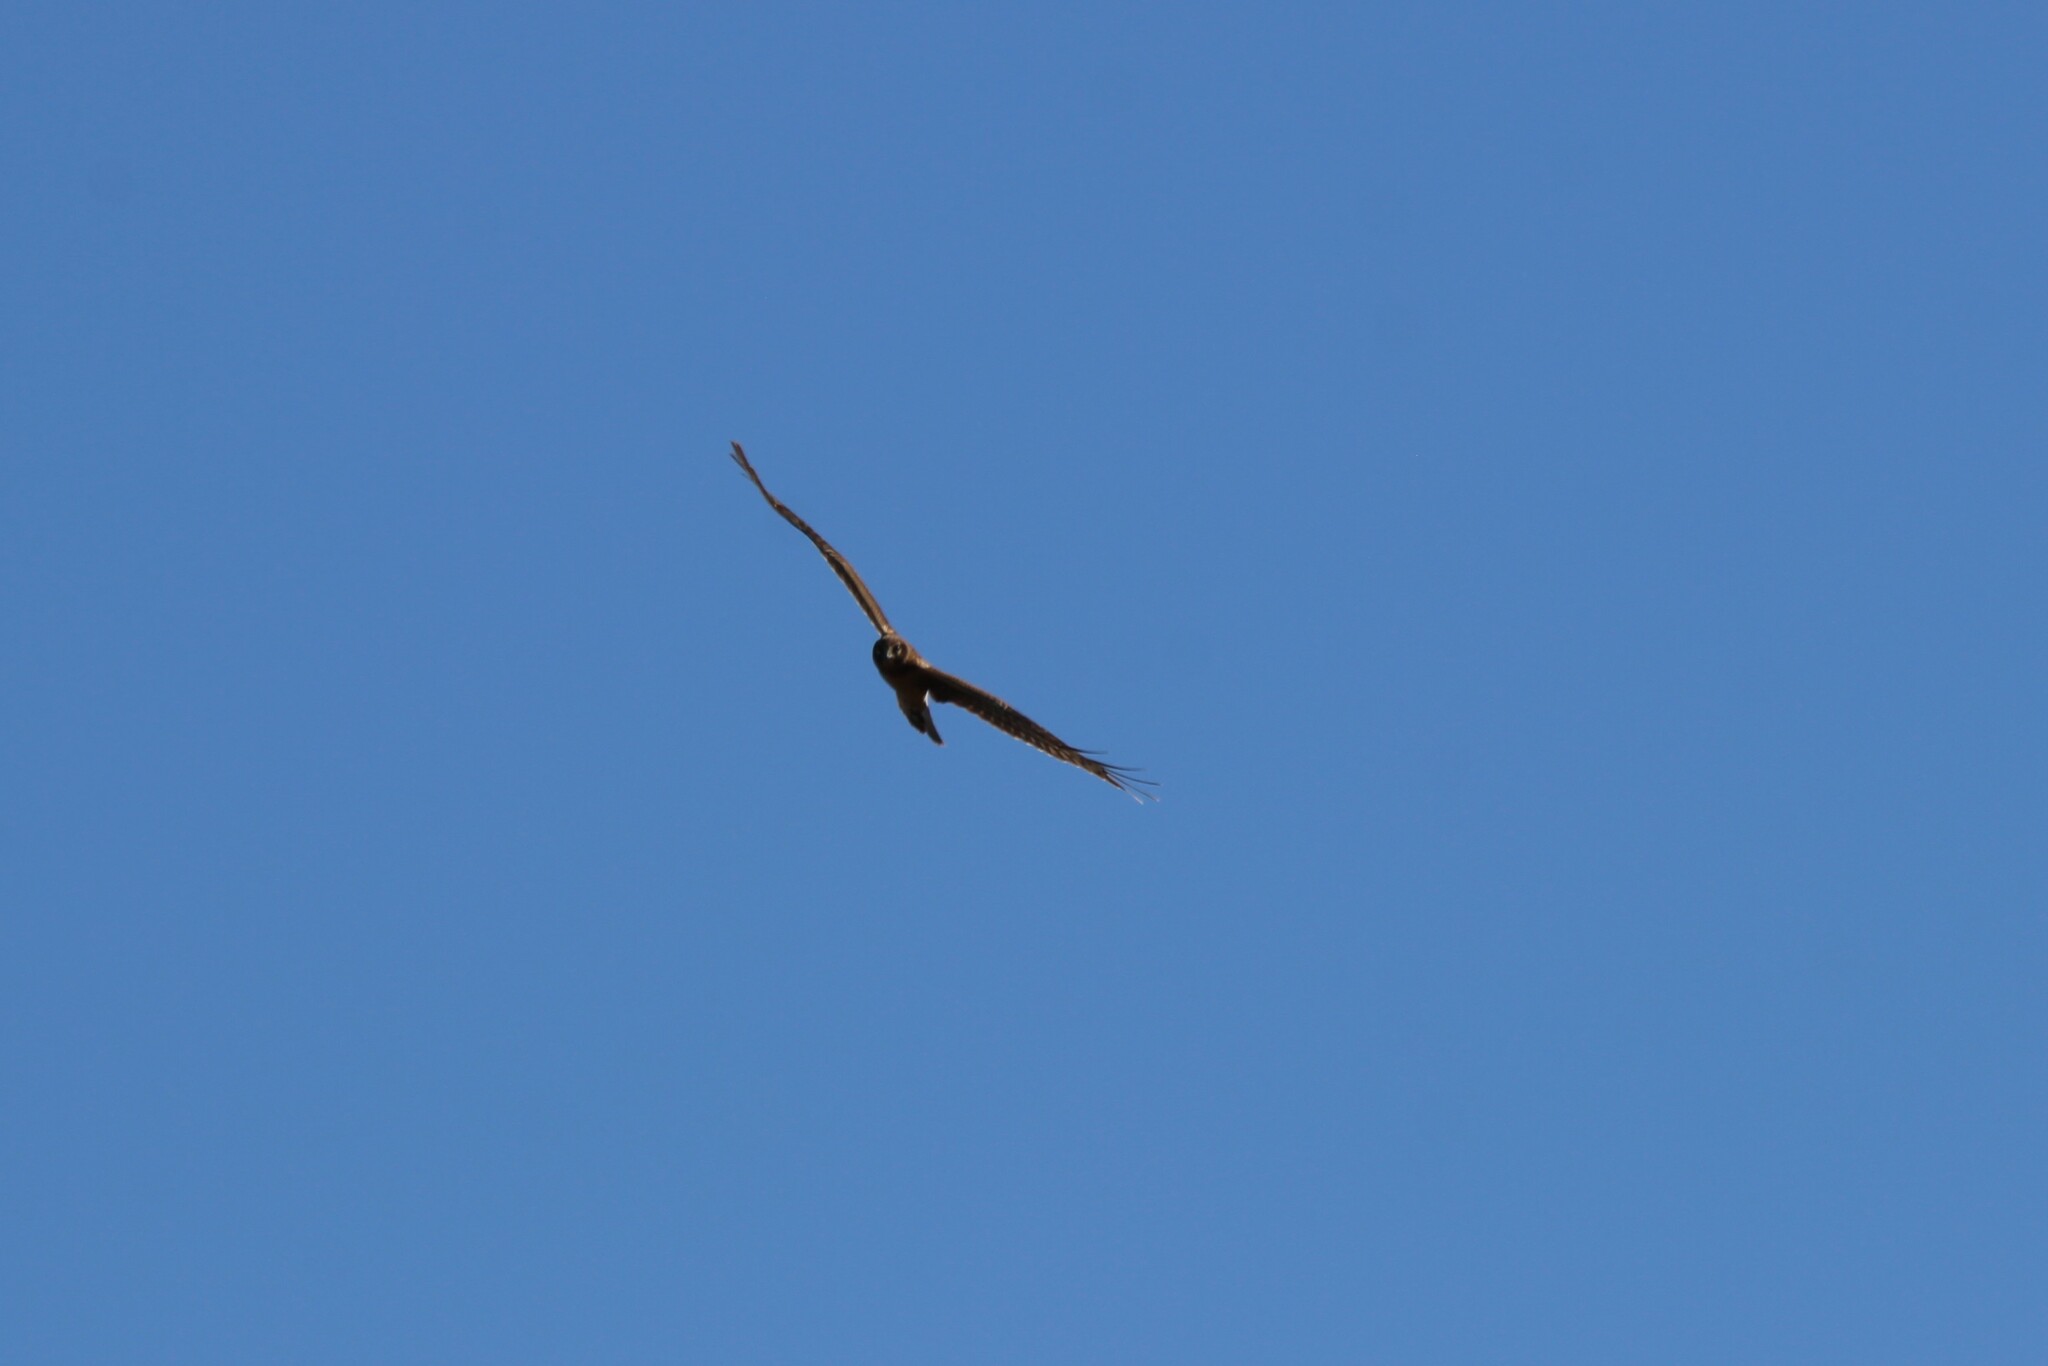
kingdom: Animalia
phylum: Chordata
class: Aves
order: Accipitriformes
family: Accipitridae
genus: Circus
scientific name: Circus cyaneus
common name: Hen harrier
